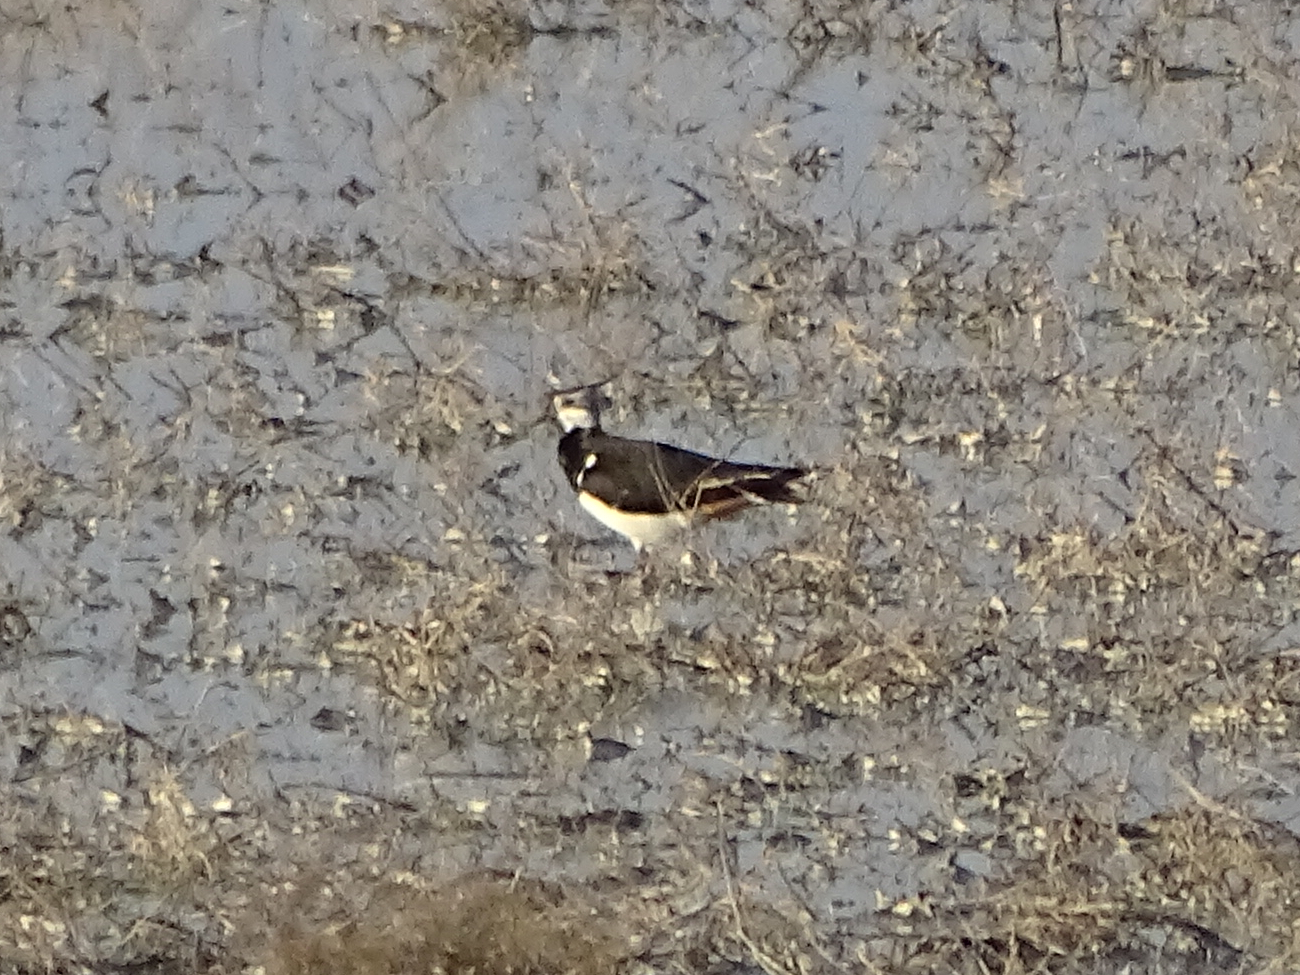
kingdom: Animalia
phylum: Chordata
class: Aves
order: Charadriiformes
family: Charadriidae
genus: Vanellus
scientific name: Vanellus vanellus
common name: Northern lapwing
